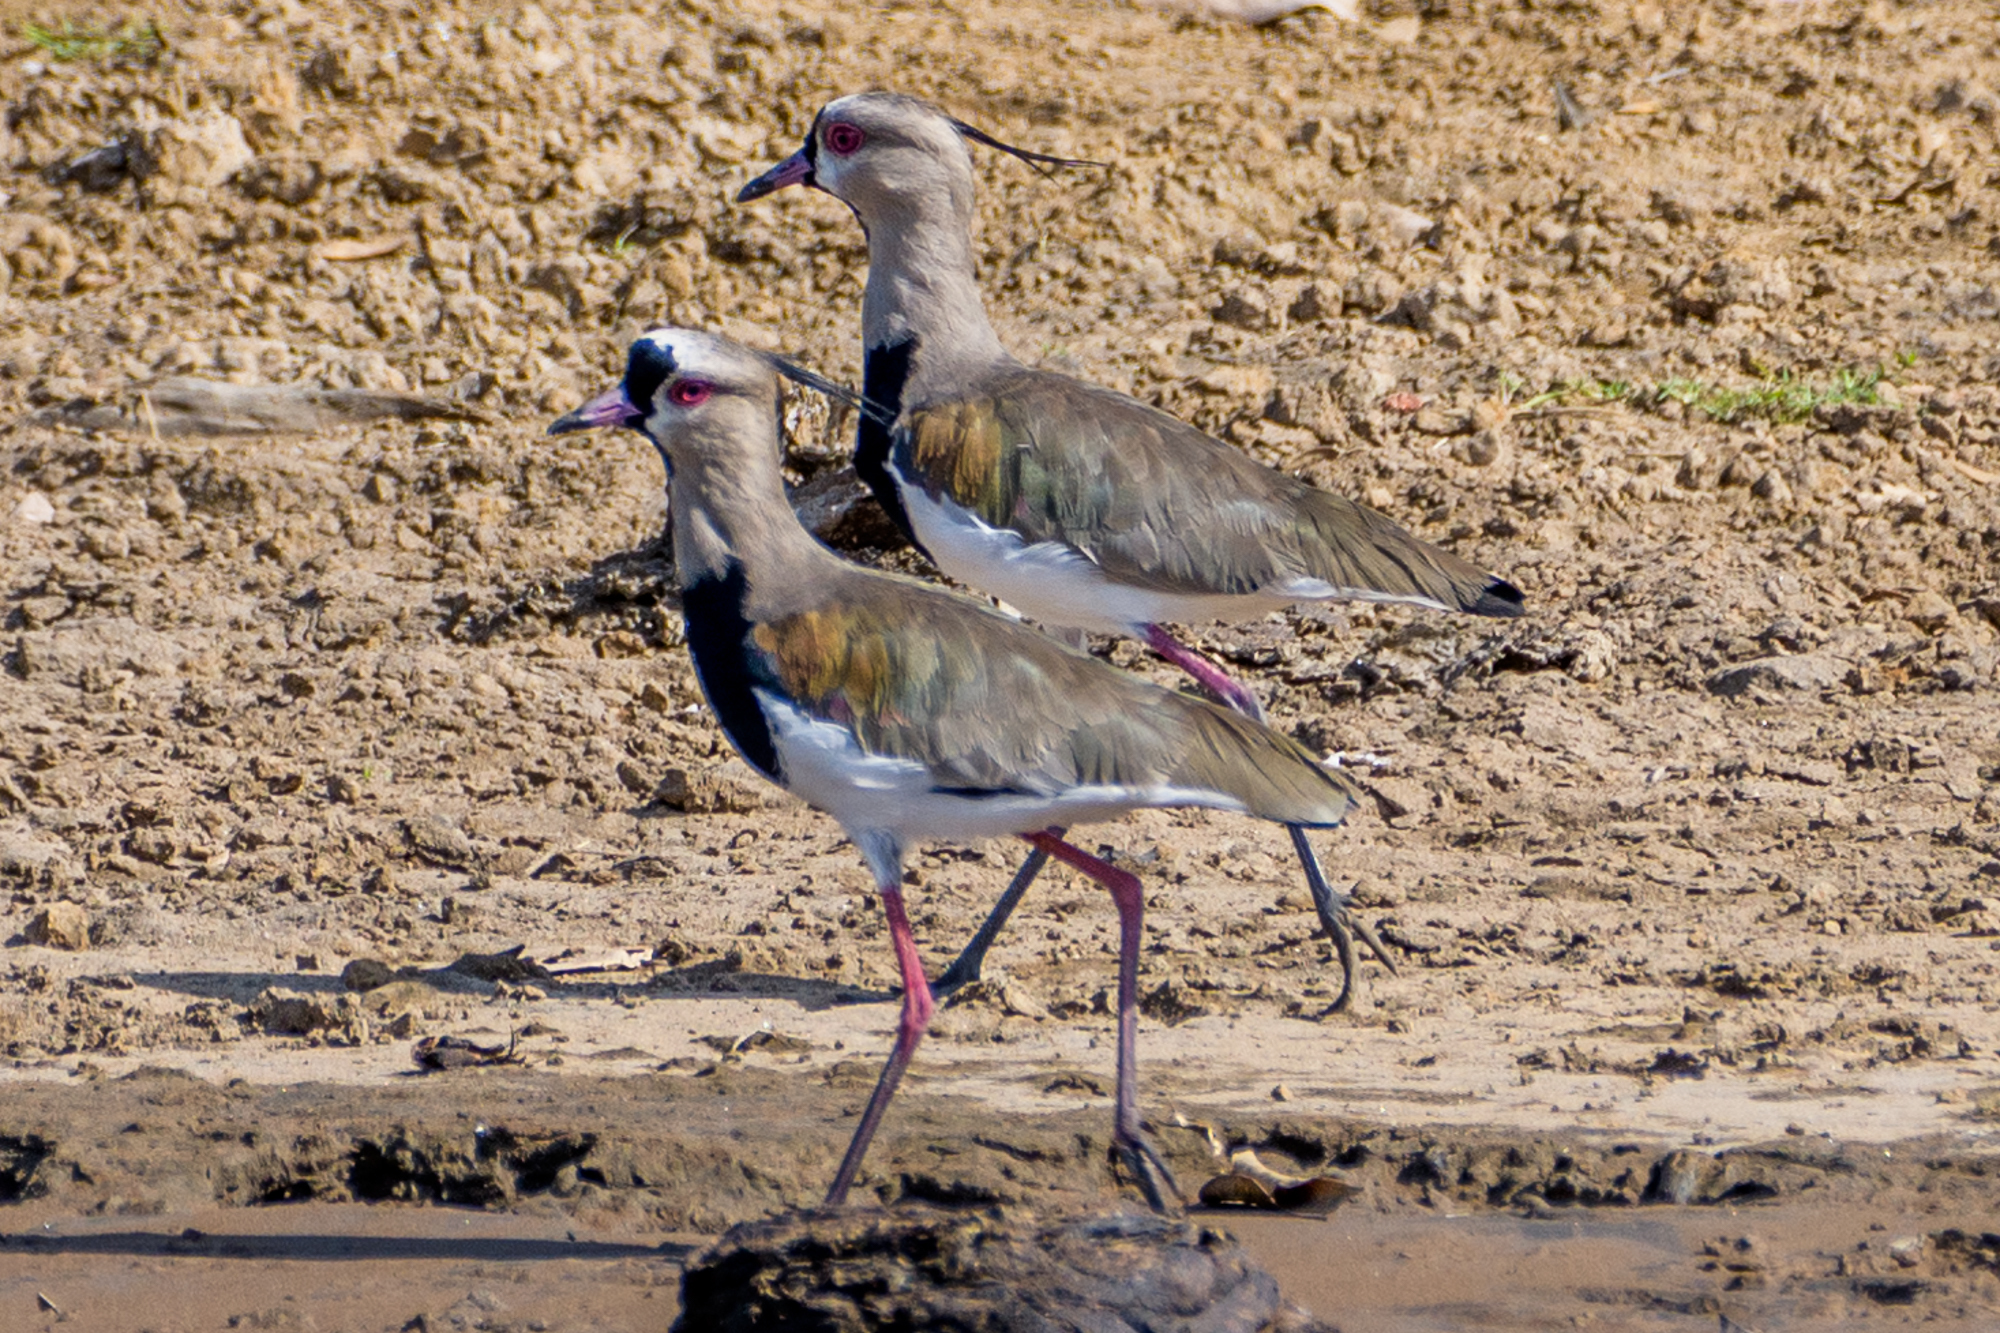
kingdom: Animalia
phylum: Chordata
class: Aves
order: Charadriiformes
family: Charadriidae
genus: Vanellus
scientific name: Vanellus chilensis
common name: Southern lapwing
